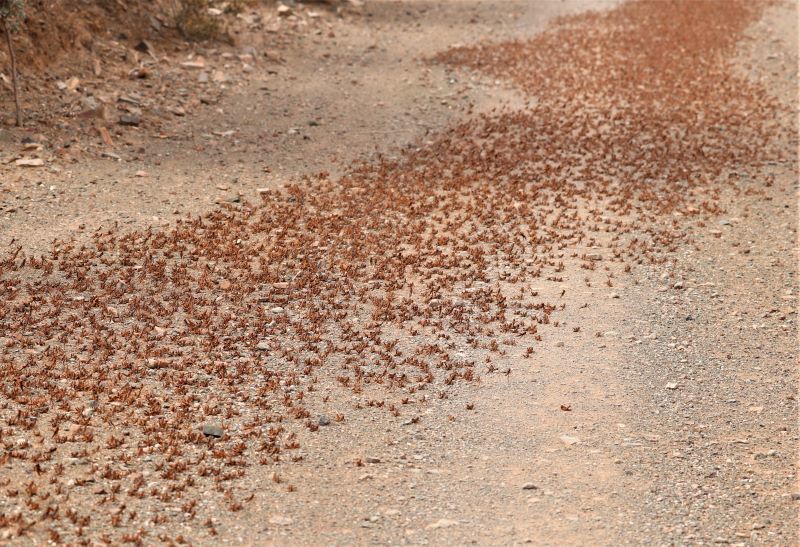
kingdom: Animalia
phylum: Arthropoda
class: Insecta
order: Orthoptera
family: Acrididae
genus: Locustana
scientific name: Locustana pardalina
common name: Brown locust
